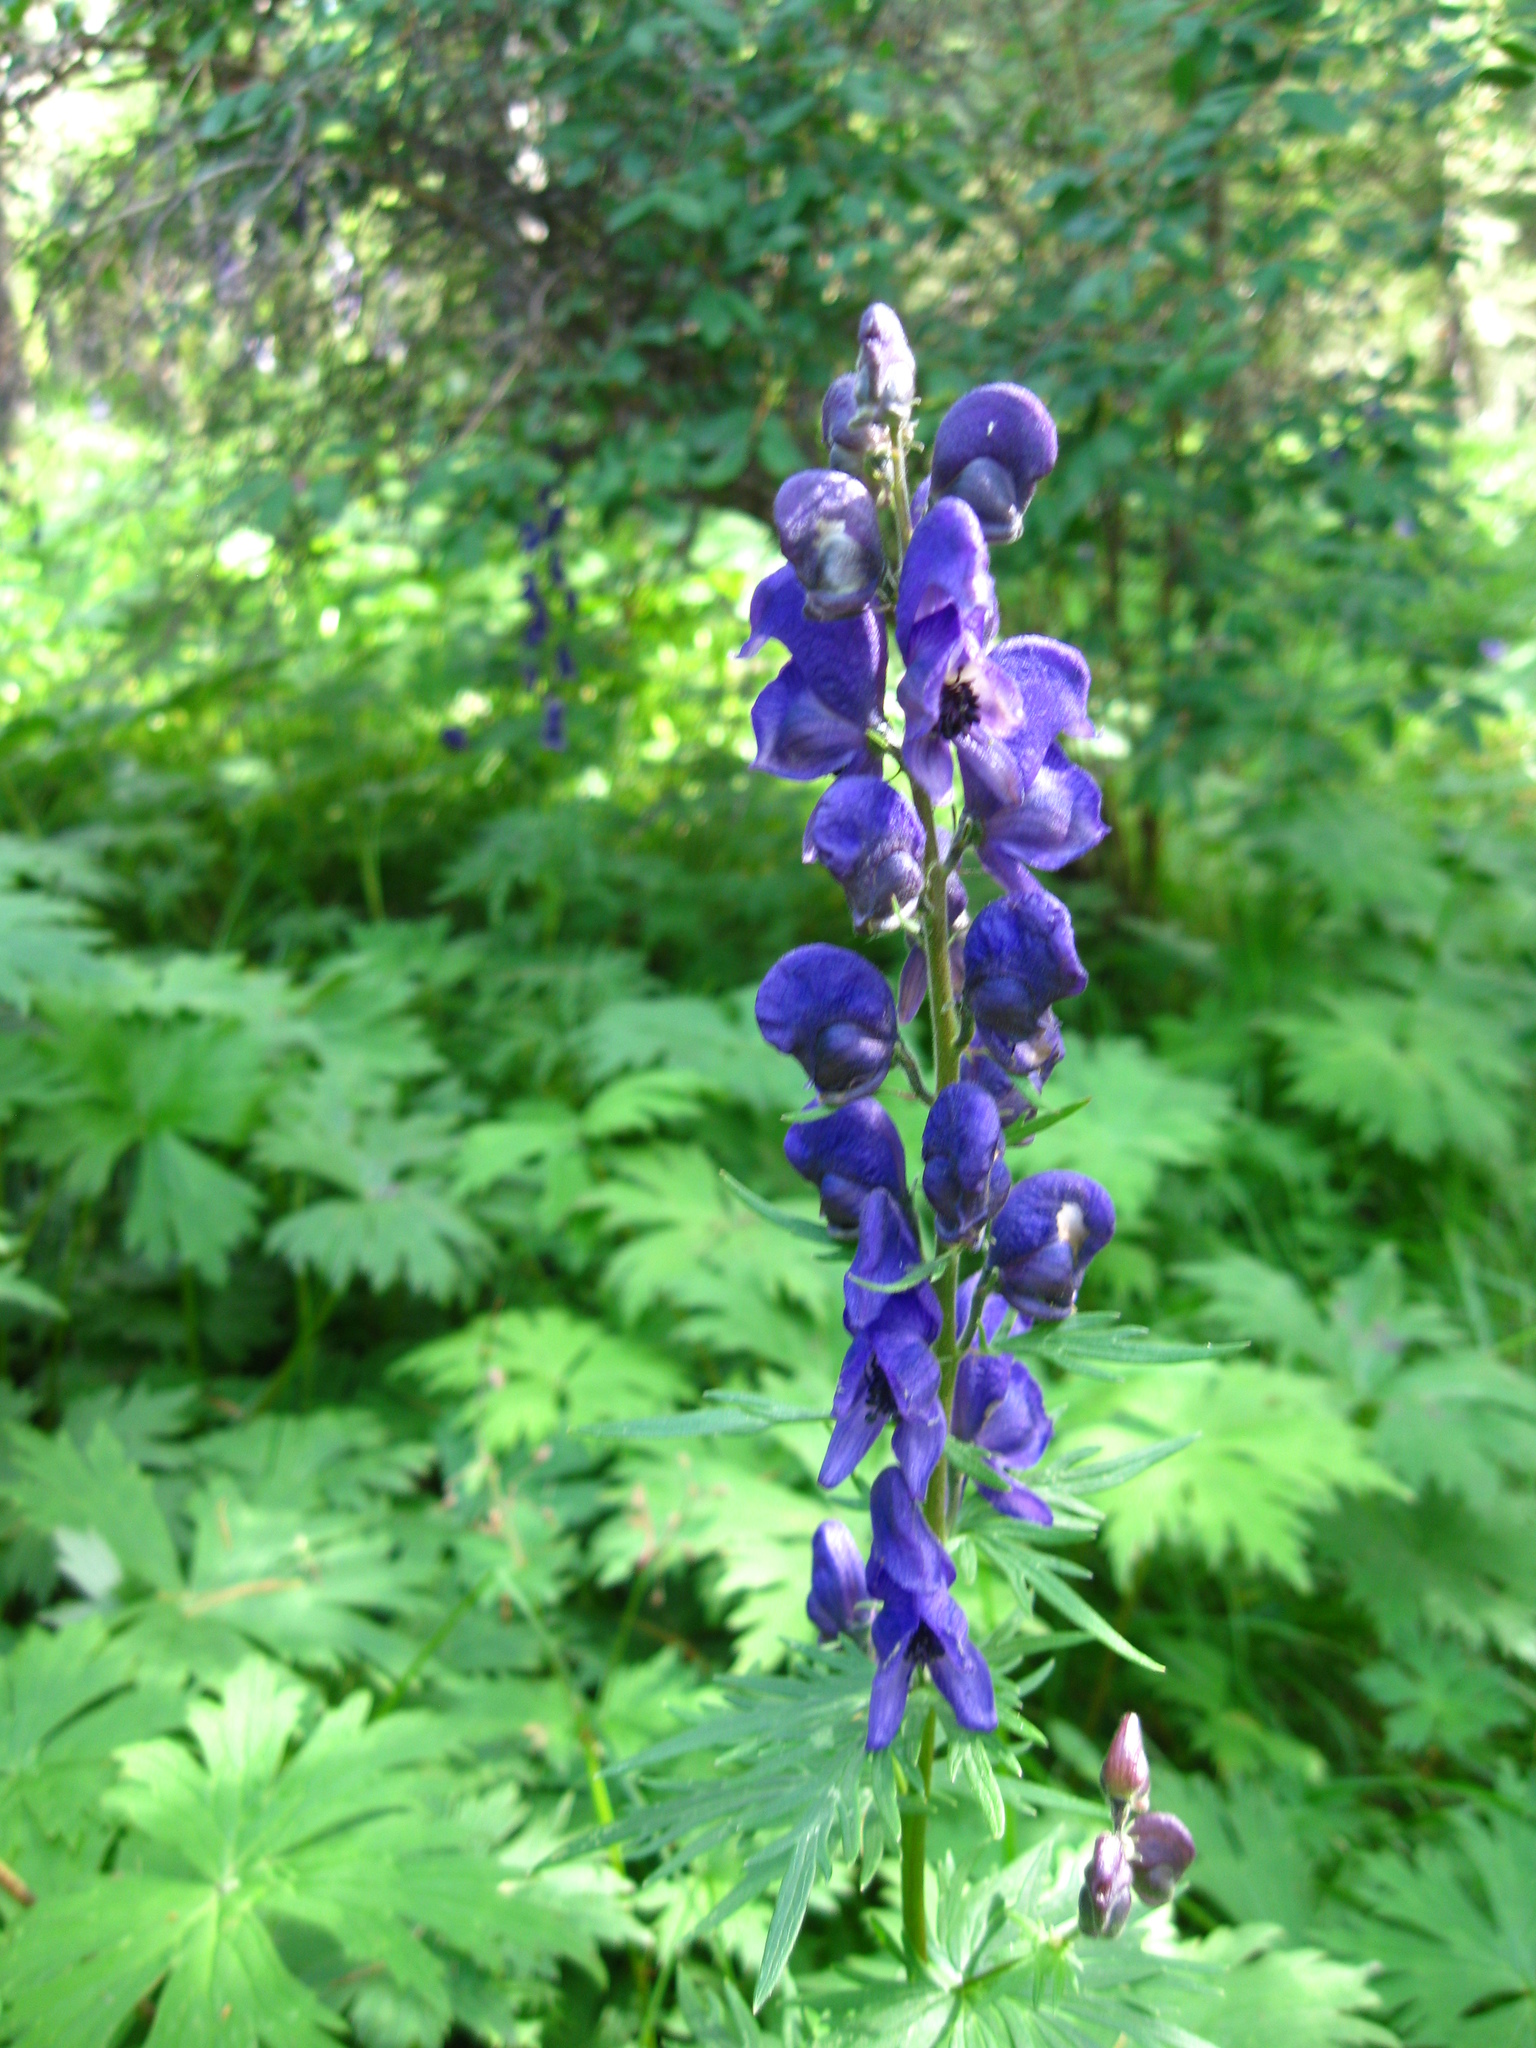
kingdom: Plantae
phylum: Tracheophyta
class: Magnoliopsida
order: Ranunculales
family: Ranunculaceae
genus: Aconitum
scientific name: Aconitum baicalense
